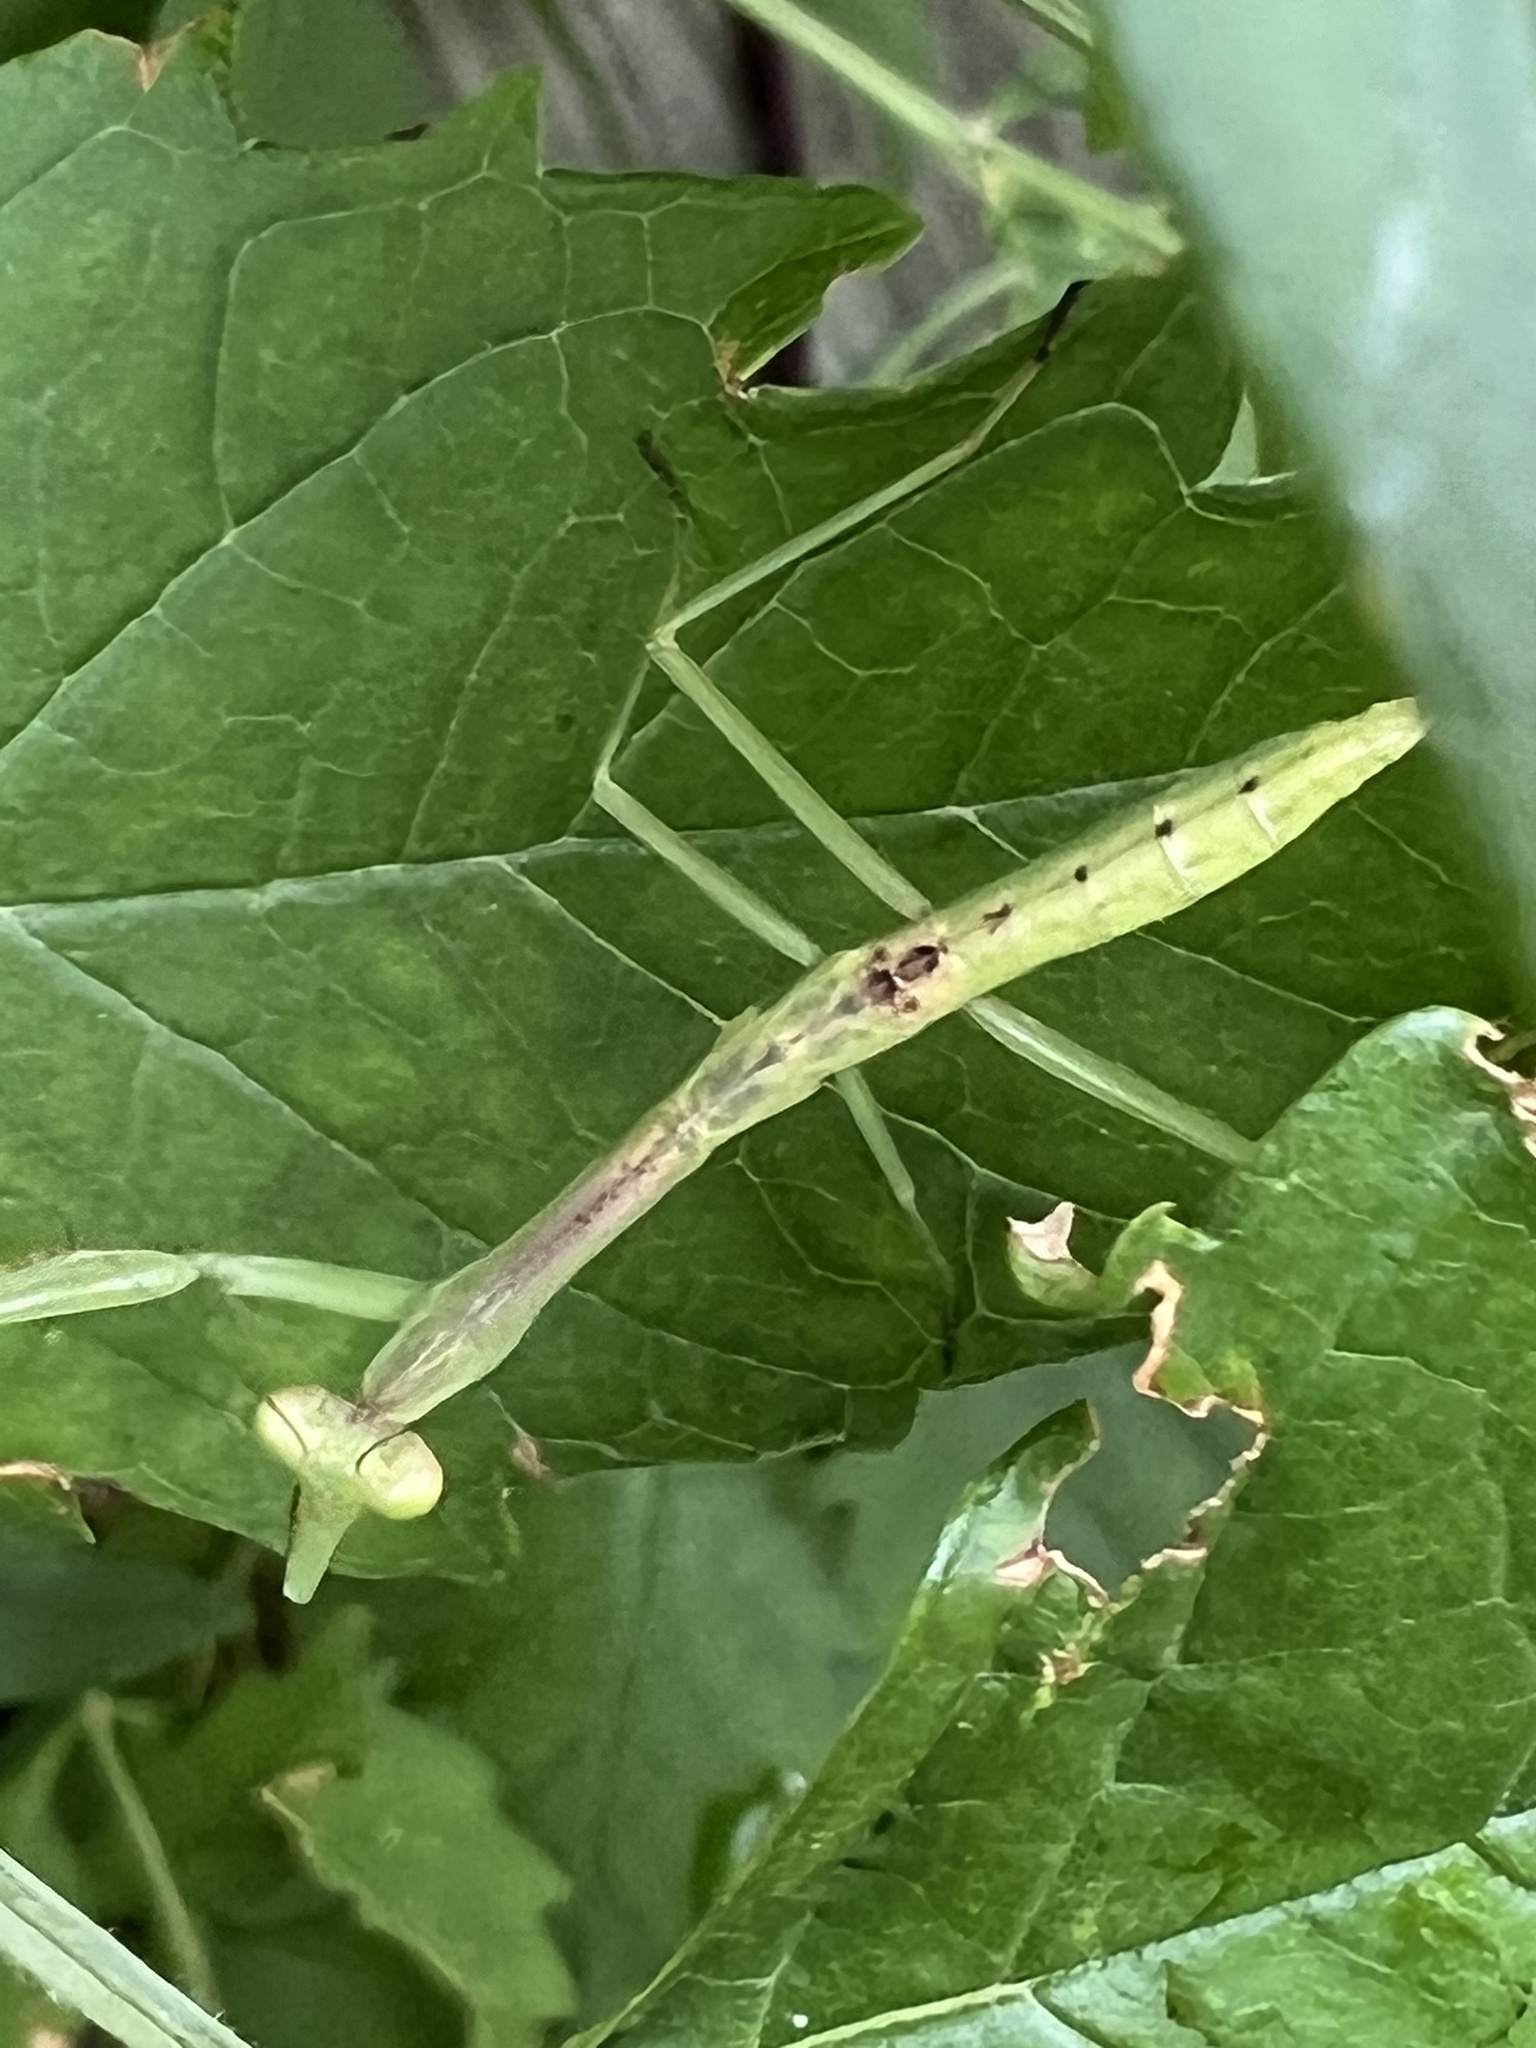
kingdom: Animalia
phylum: Arthropoda
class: Insecta
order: Mantodea
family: Mantidae
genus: Stagmomantis
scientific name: Stagmomantis carolina
